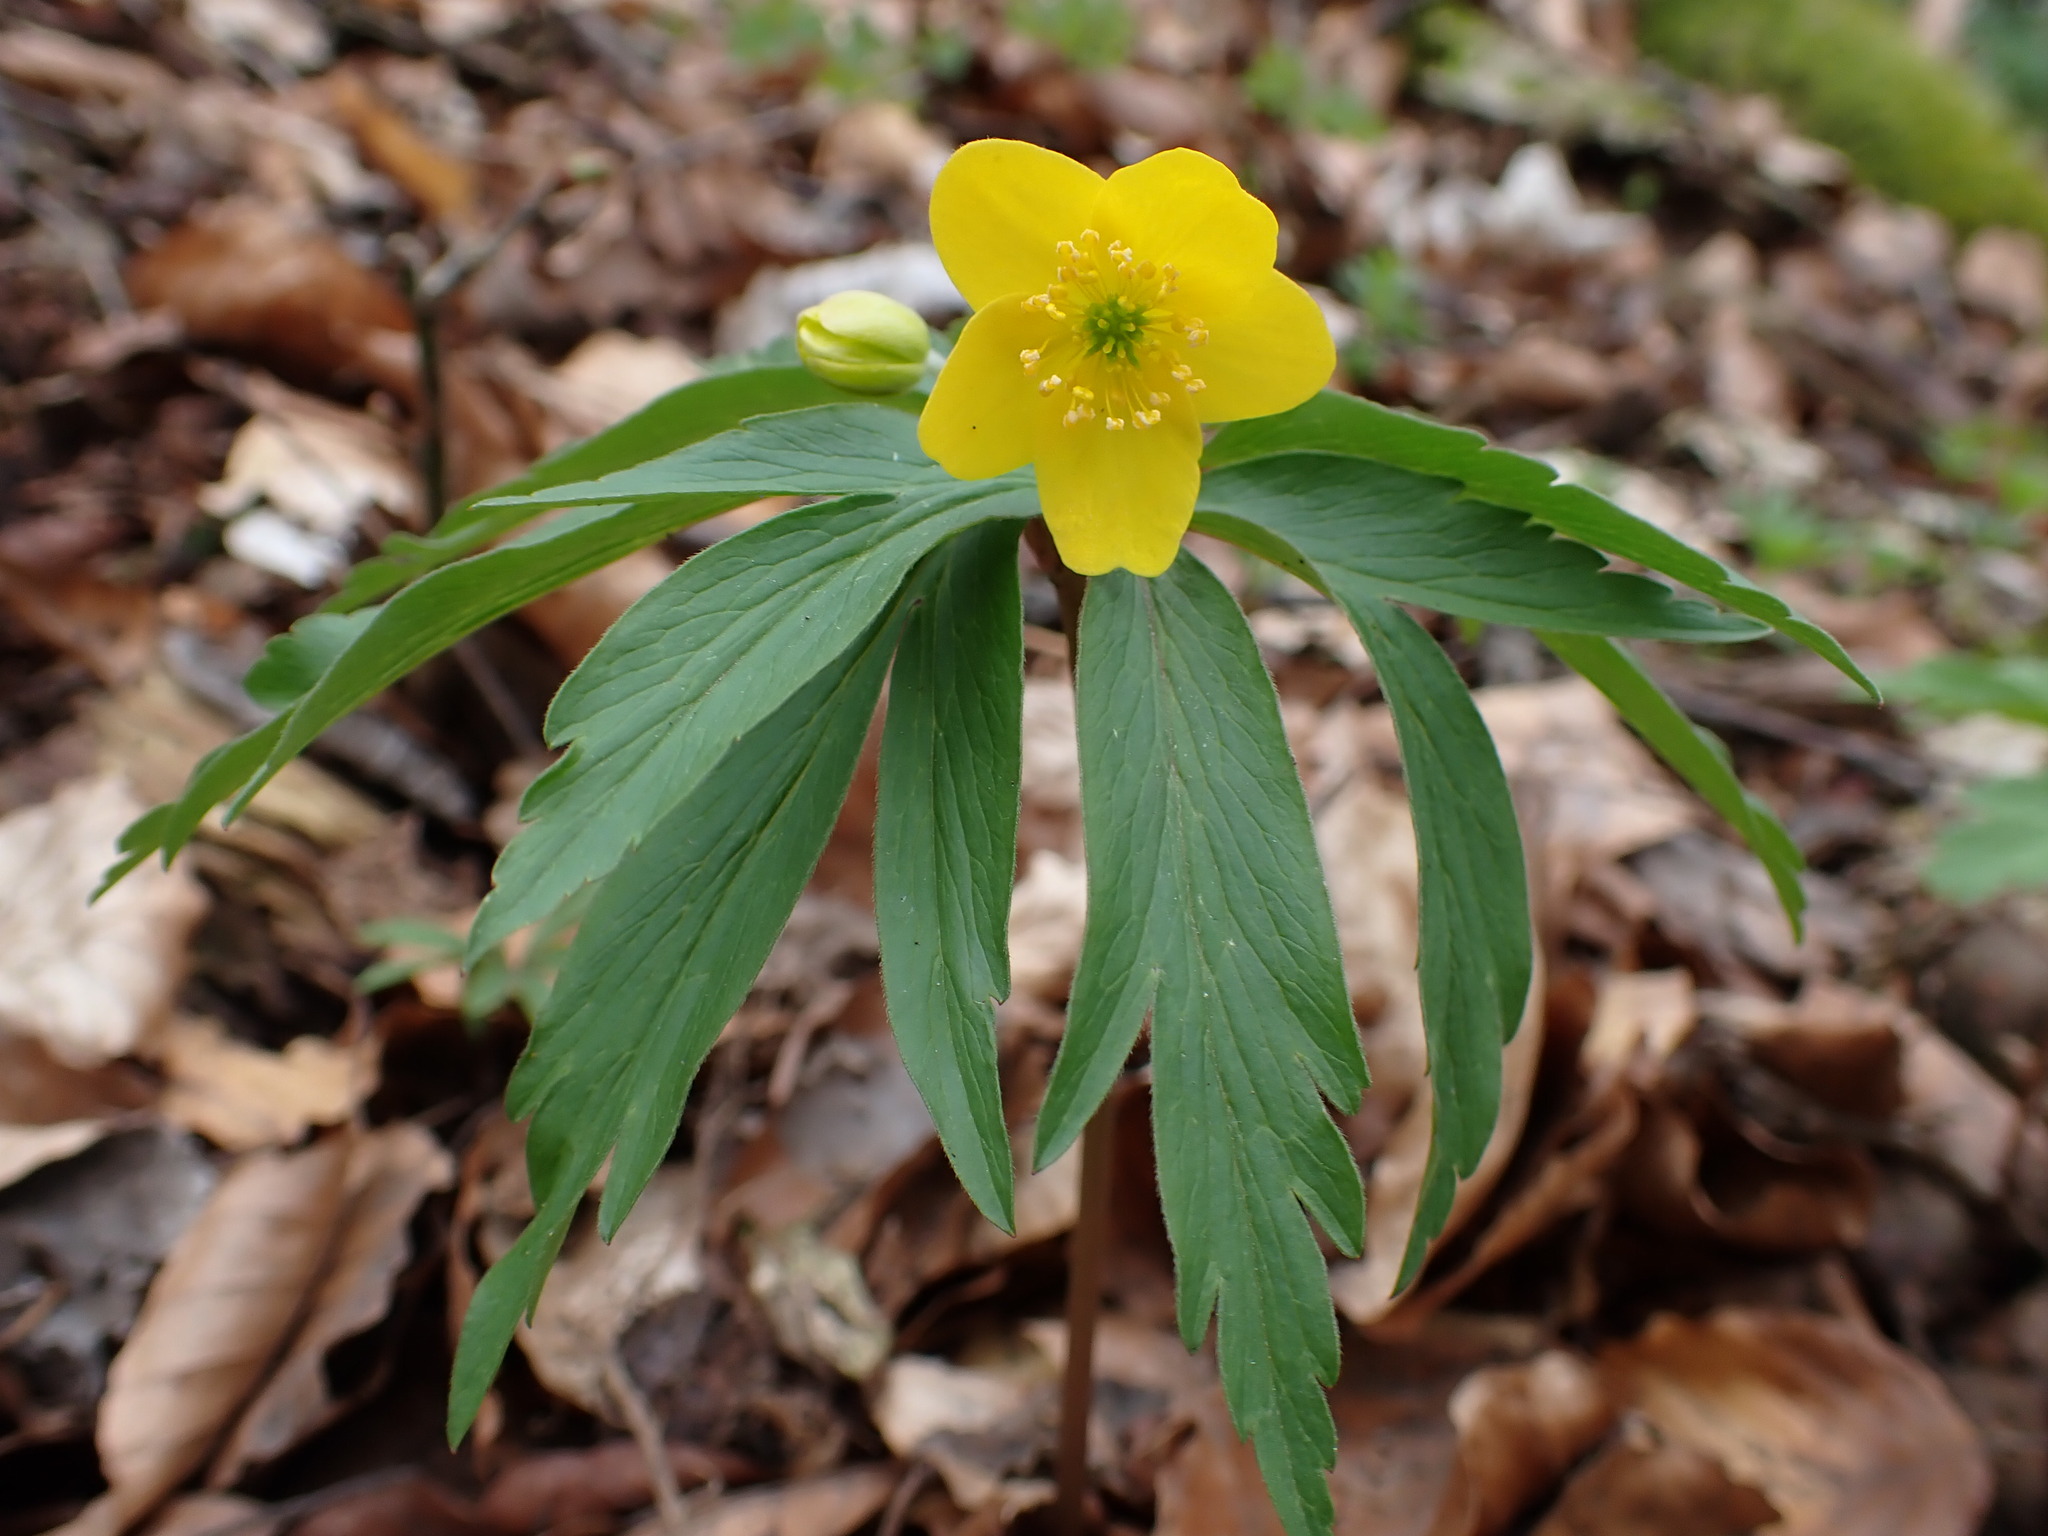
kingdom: Plantae
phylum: Tracheophyta
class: Magnoliopsida
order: Ranunculales
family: Ranunculaceae
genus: Anemone
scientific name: Anemone ranunculoides
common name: Yellow anemone
